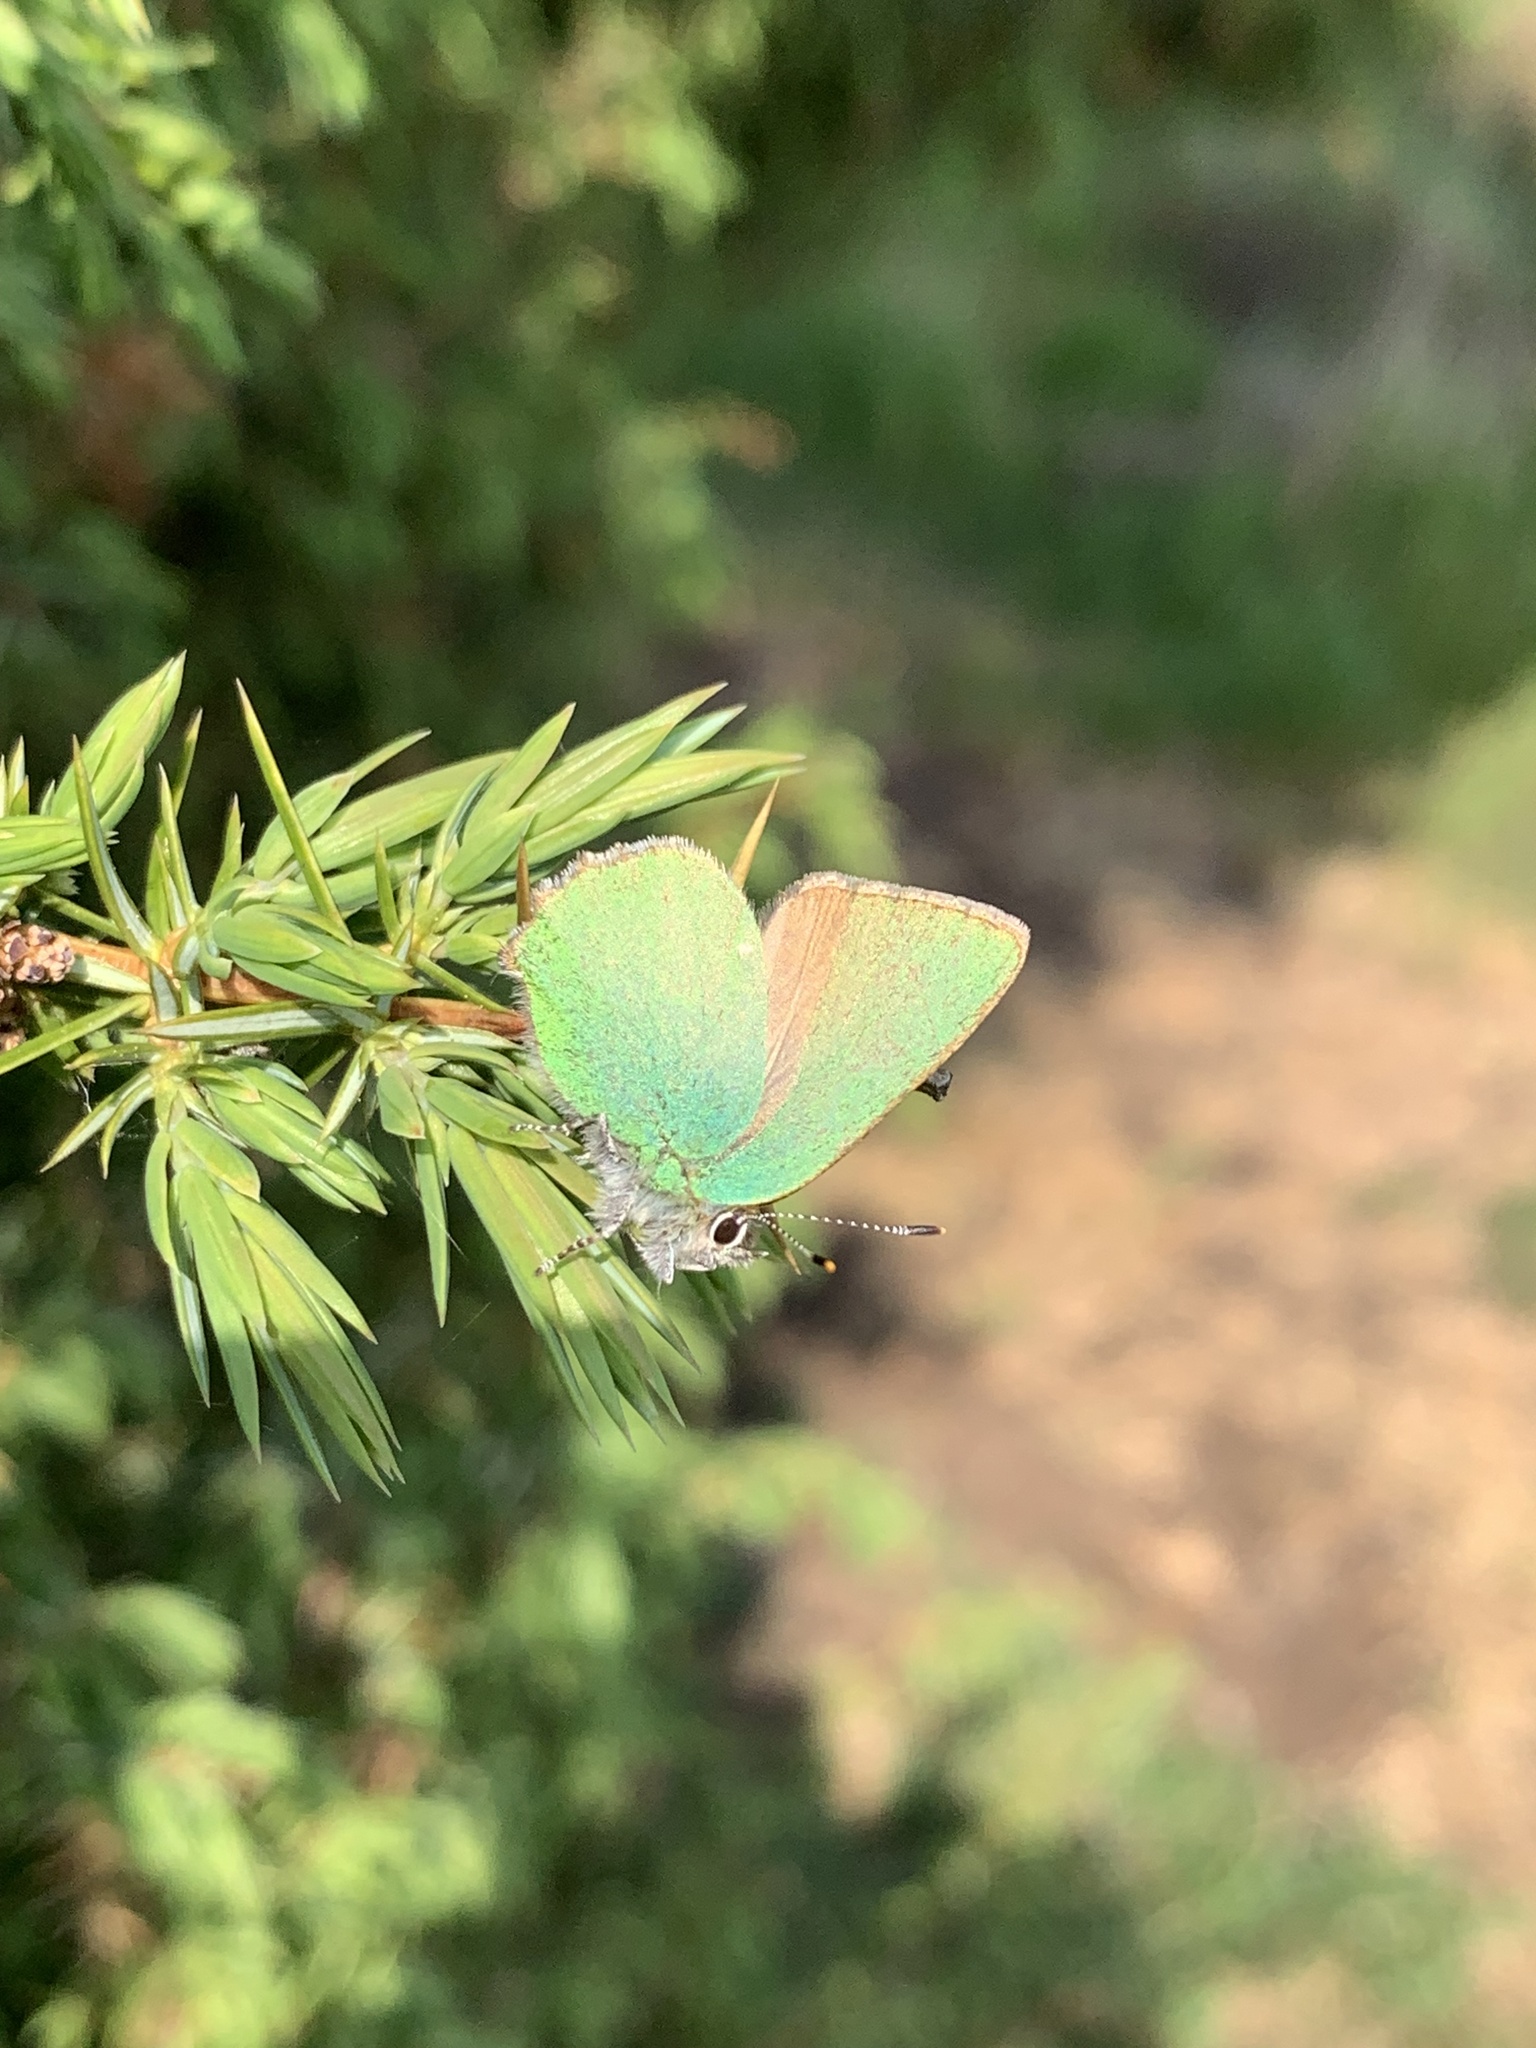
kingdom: Animalia
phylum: Arthropoda
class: Insecta
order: Lepidoptera
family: Lycaenidae
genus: Callophrys
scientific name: Callophrys rubi
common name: Green hairstreak
